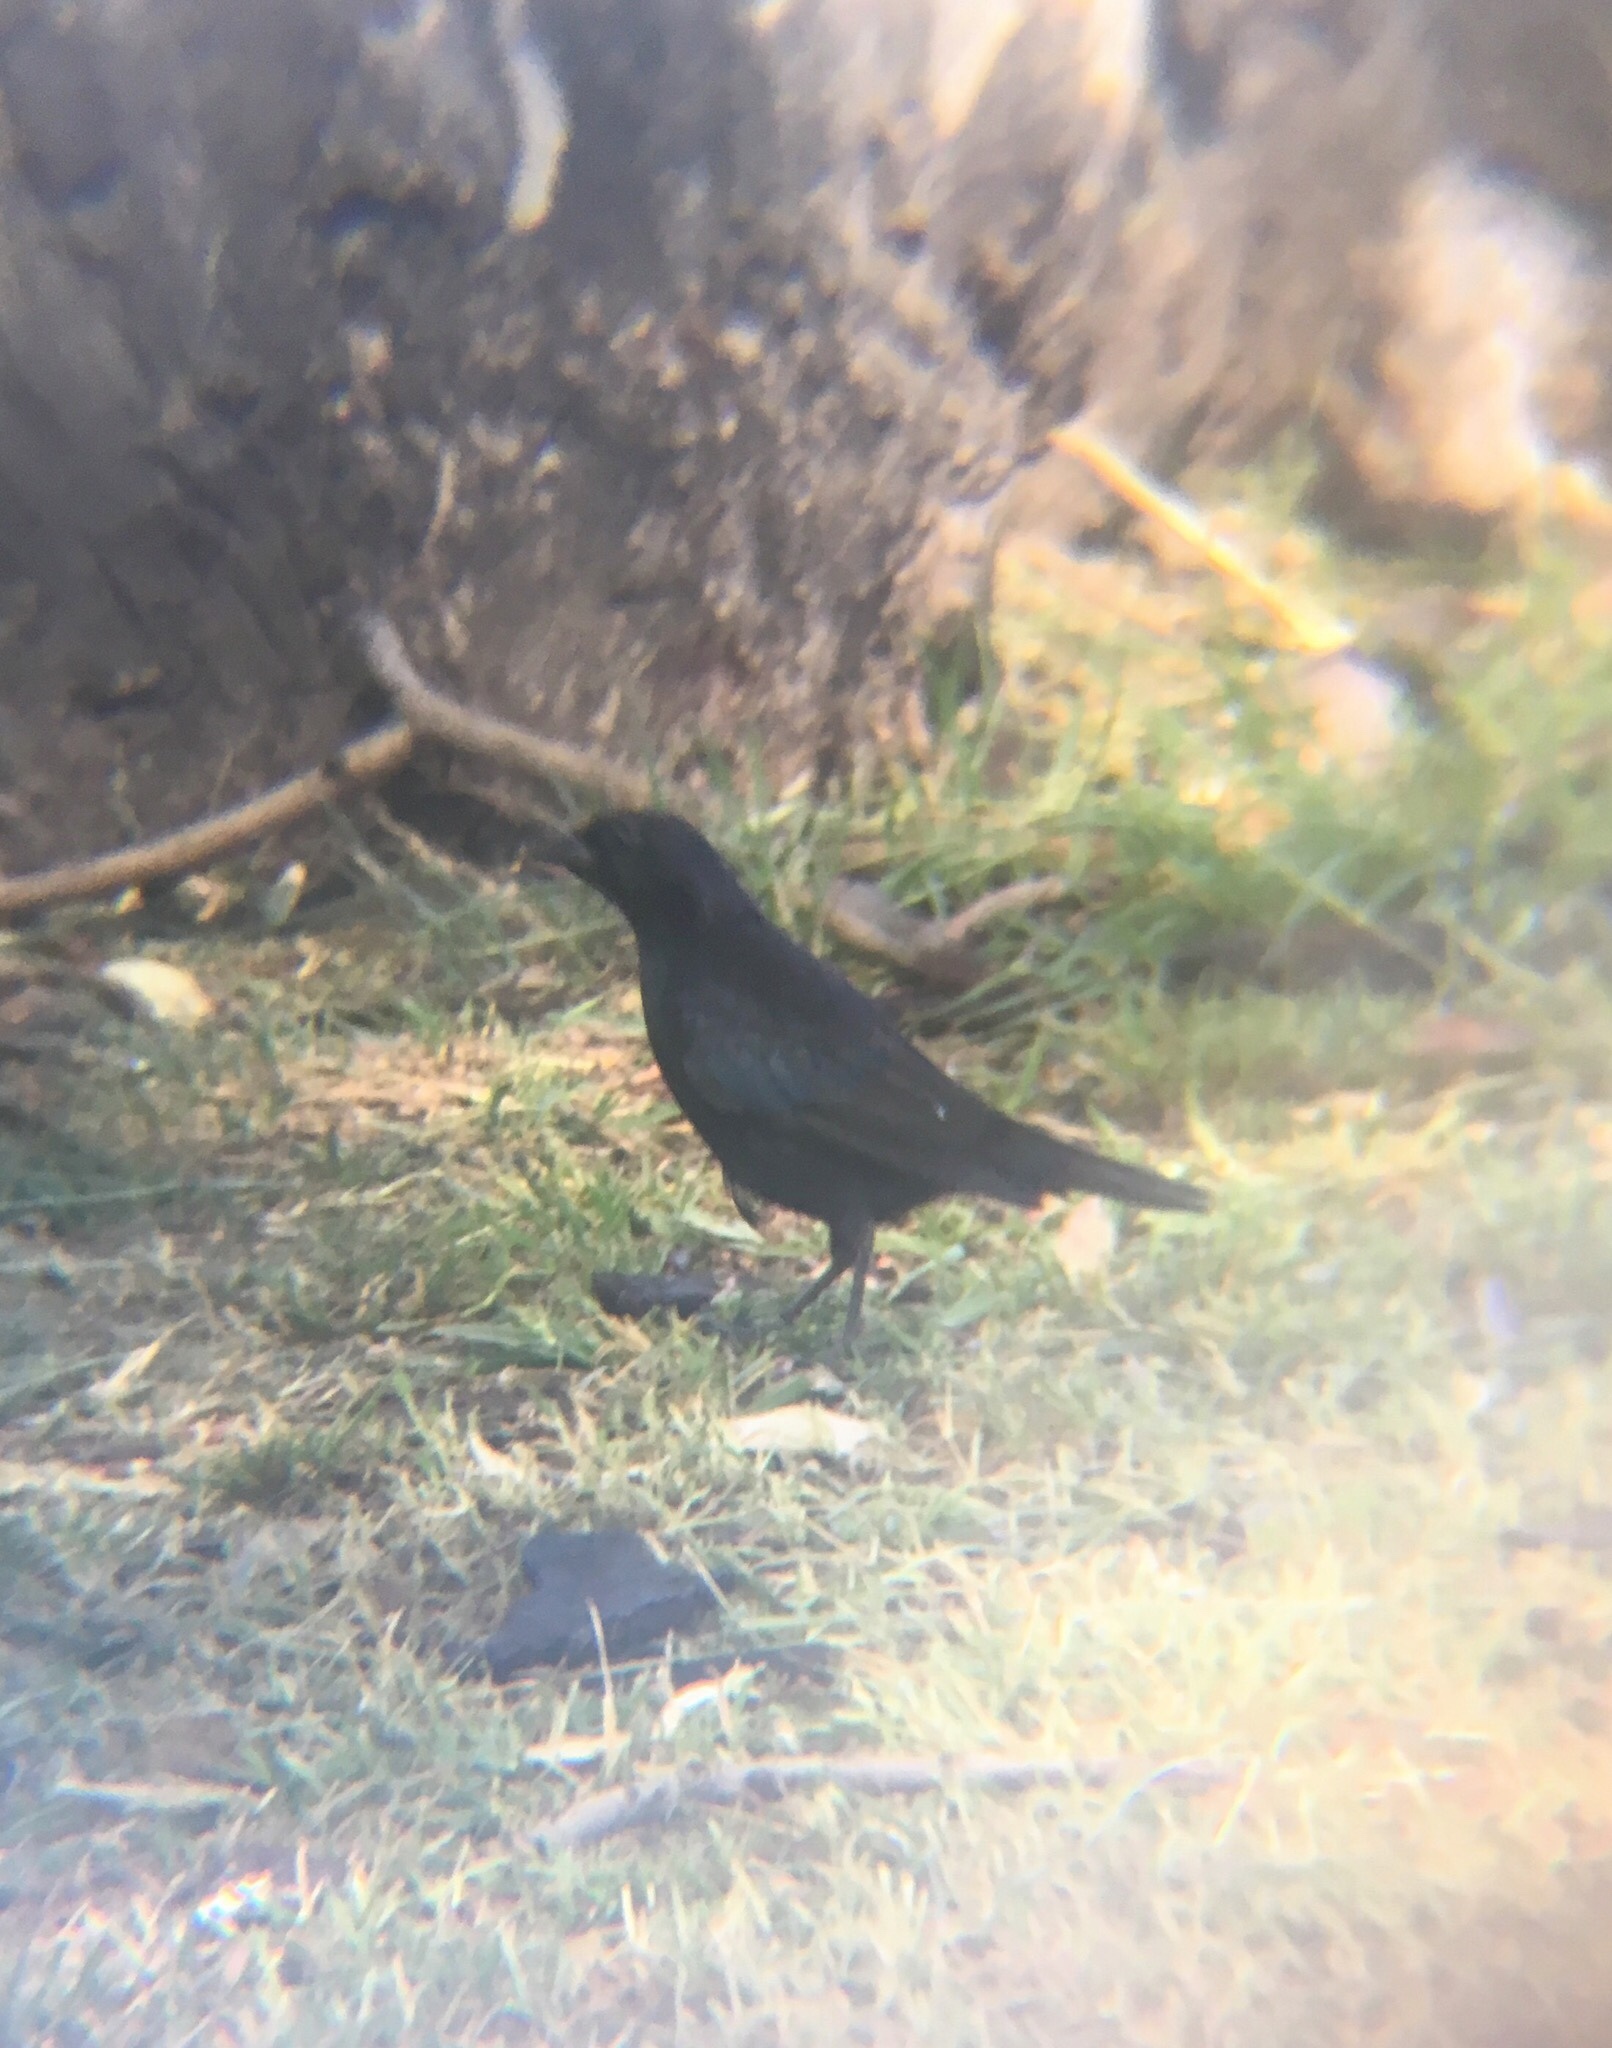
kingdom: Animalia
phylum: Chordata
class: Aves
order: Passeriformes
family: Icteridae
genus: Molothrus
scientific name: Molothrus bonariensis
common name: Shiny cowbird
